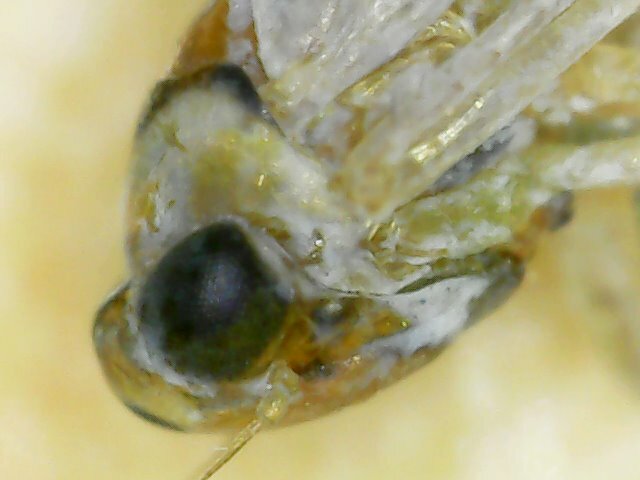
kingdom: Animalia
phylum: Arthropoda
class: Insecta
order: Hemiptera
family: Cicadellidae
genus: Singapora
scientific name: Singapora nigropunctata
